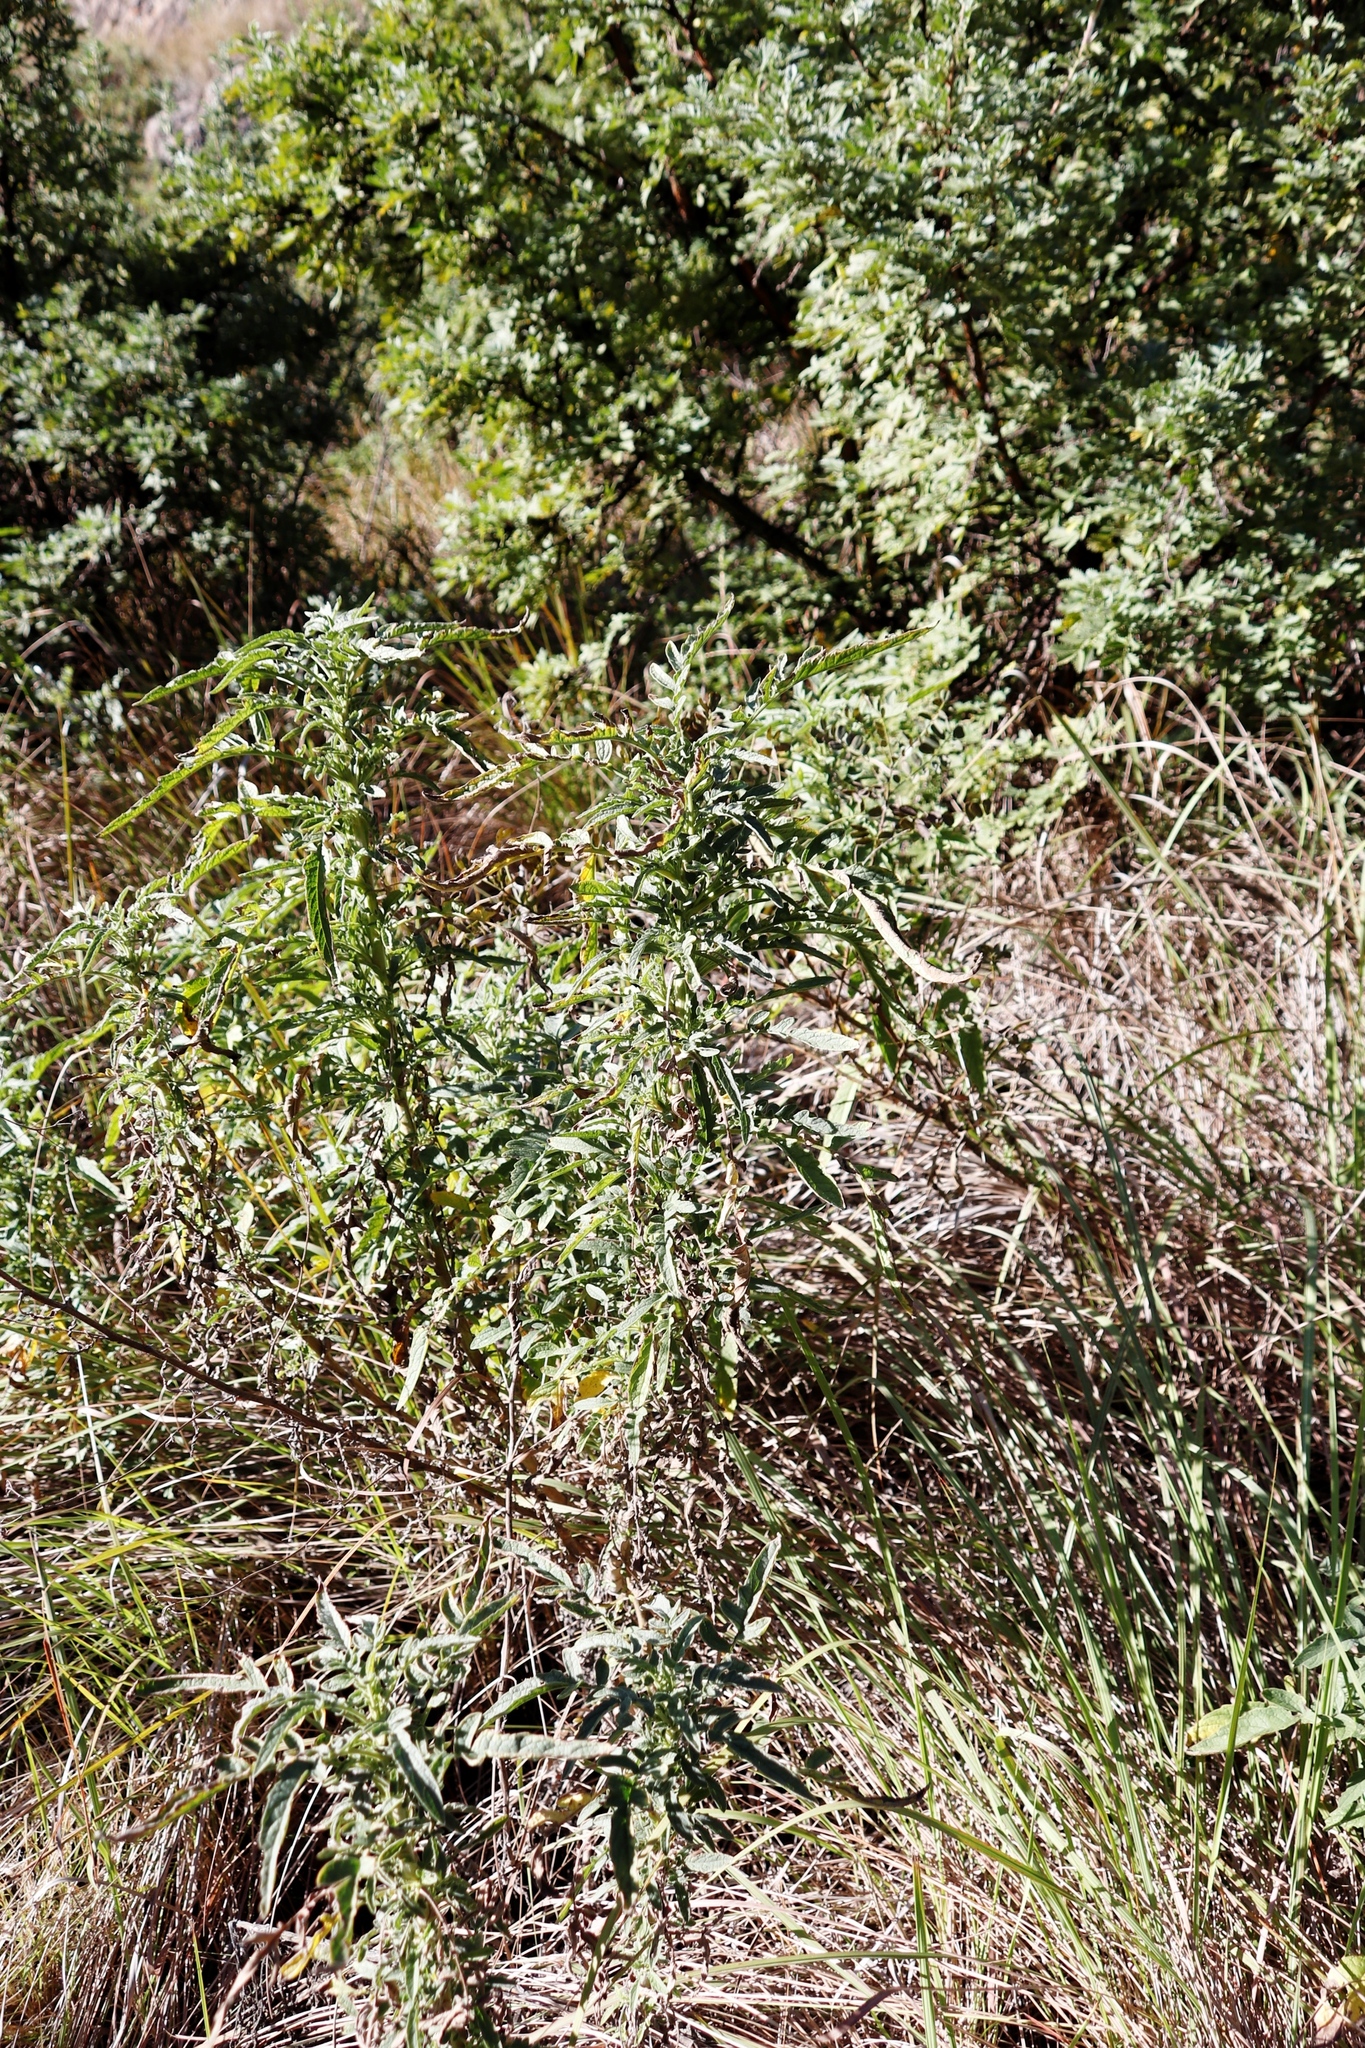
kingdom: Plantae
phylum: Tracheophyta
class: Magnoliopsida
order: Asterales
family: Asteraceae
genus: Heteromma
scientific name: Heteromma decurrens
